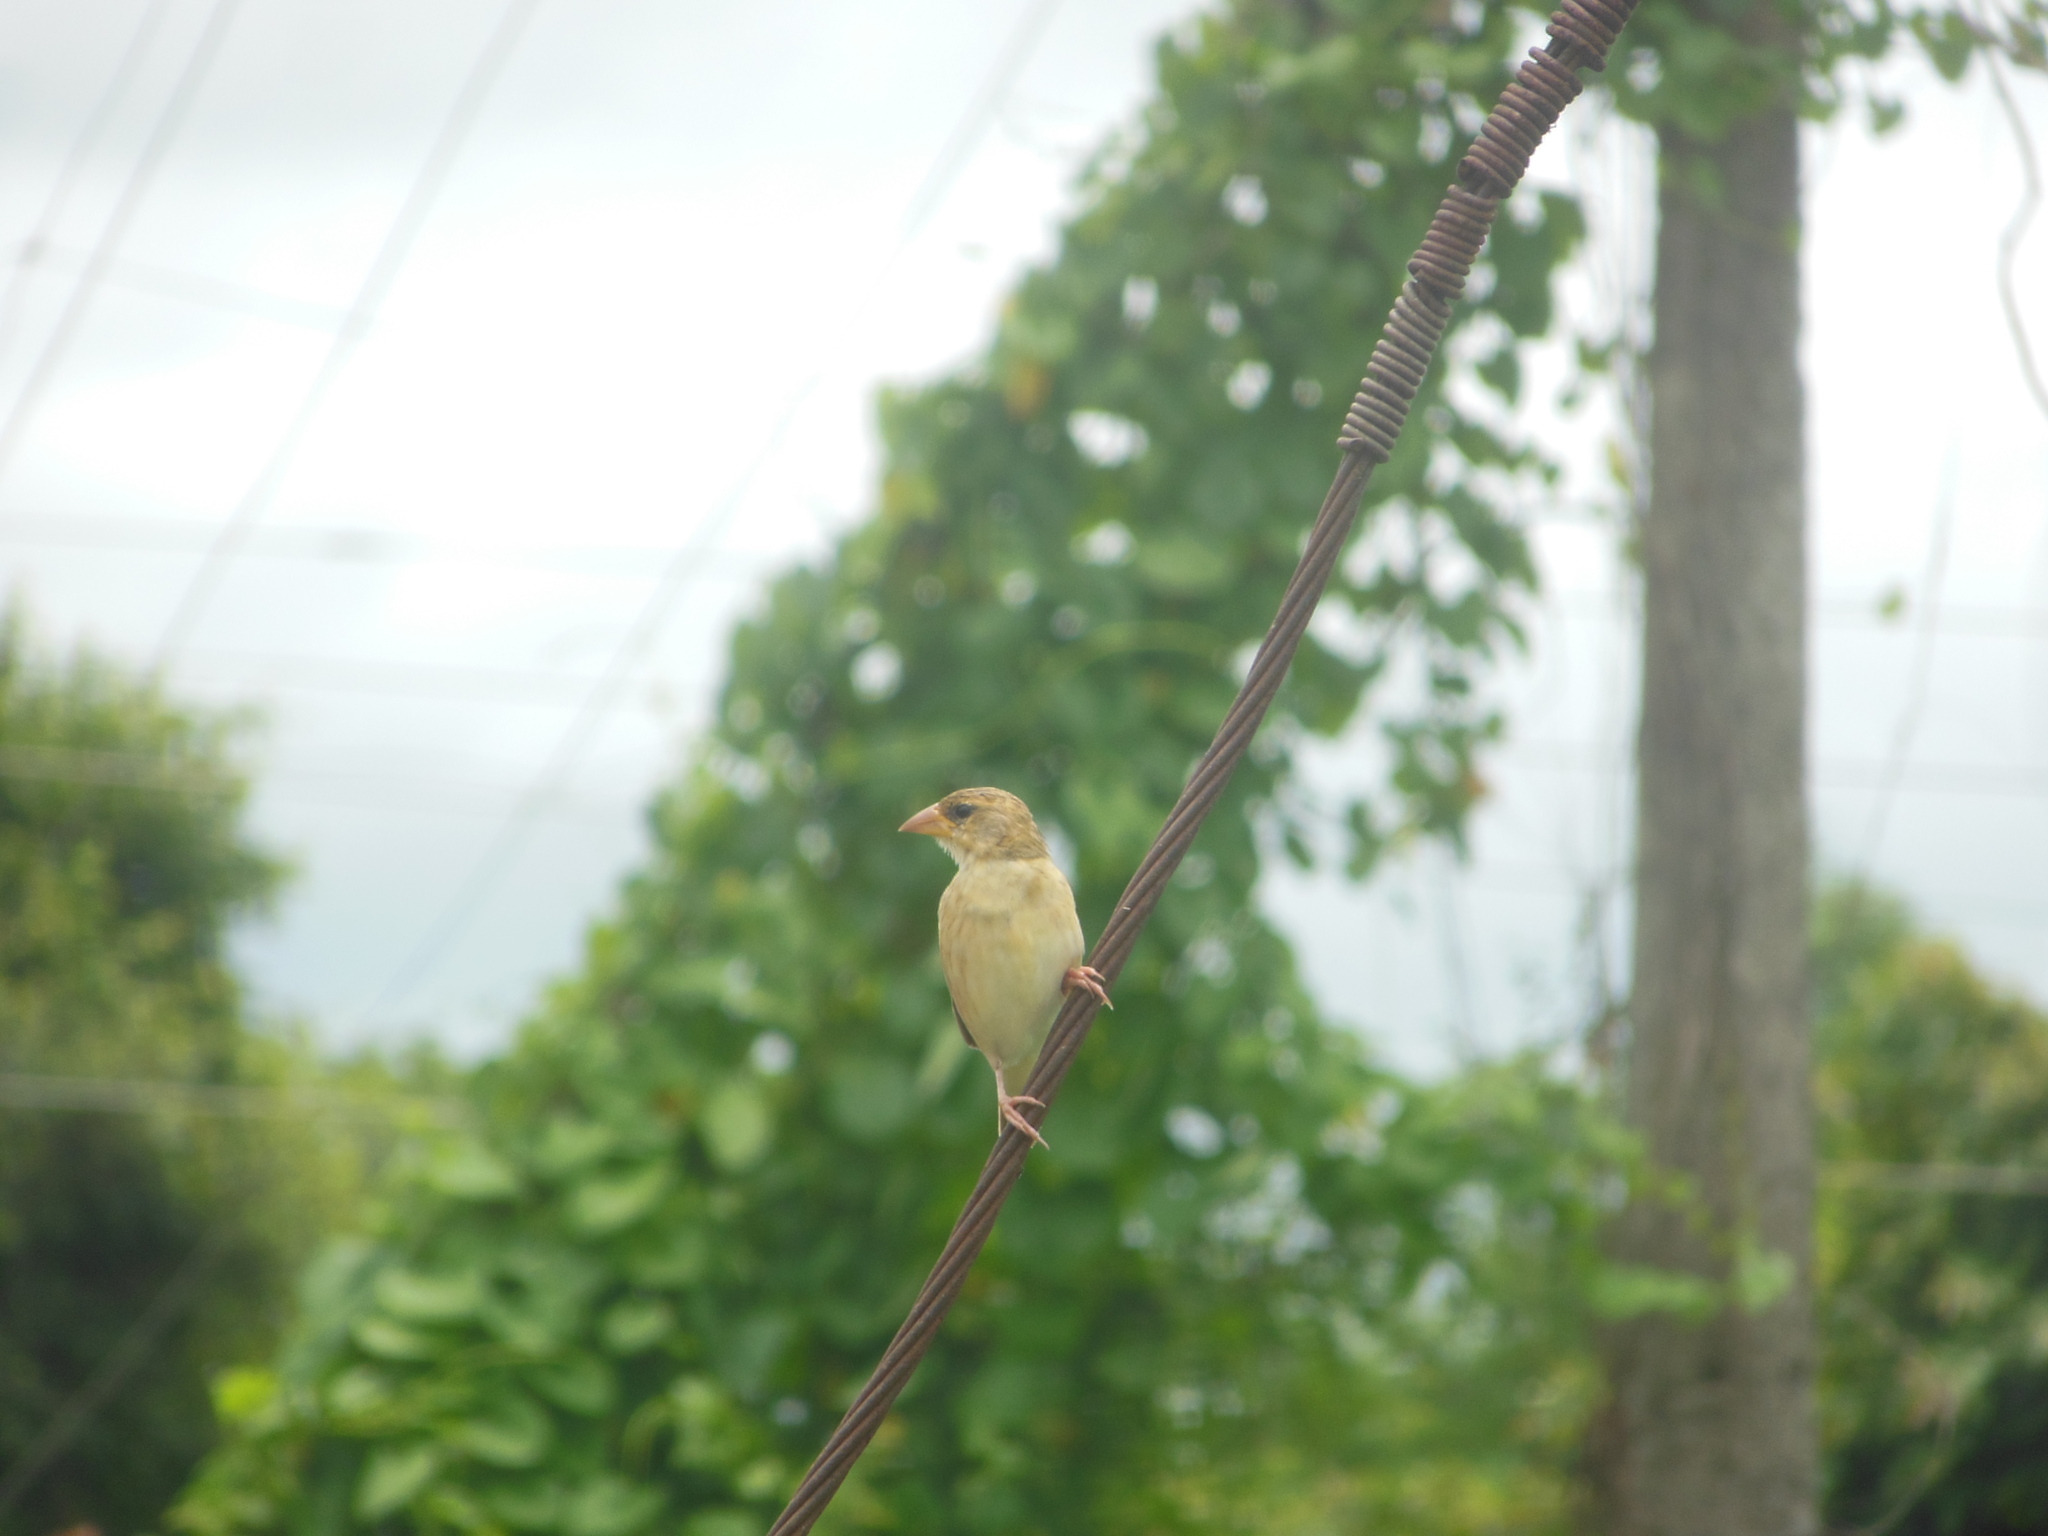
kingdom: Animalia
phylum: Chordata
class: Aves
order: Passeriformes
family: Ploceidae
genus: Ploceus
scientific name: Ploceus philippinus
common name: Baya weaver
